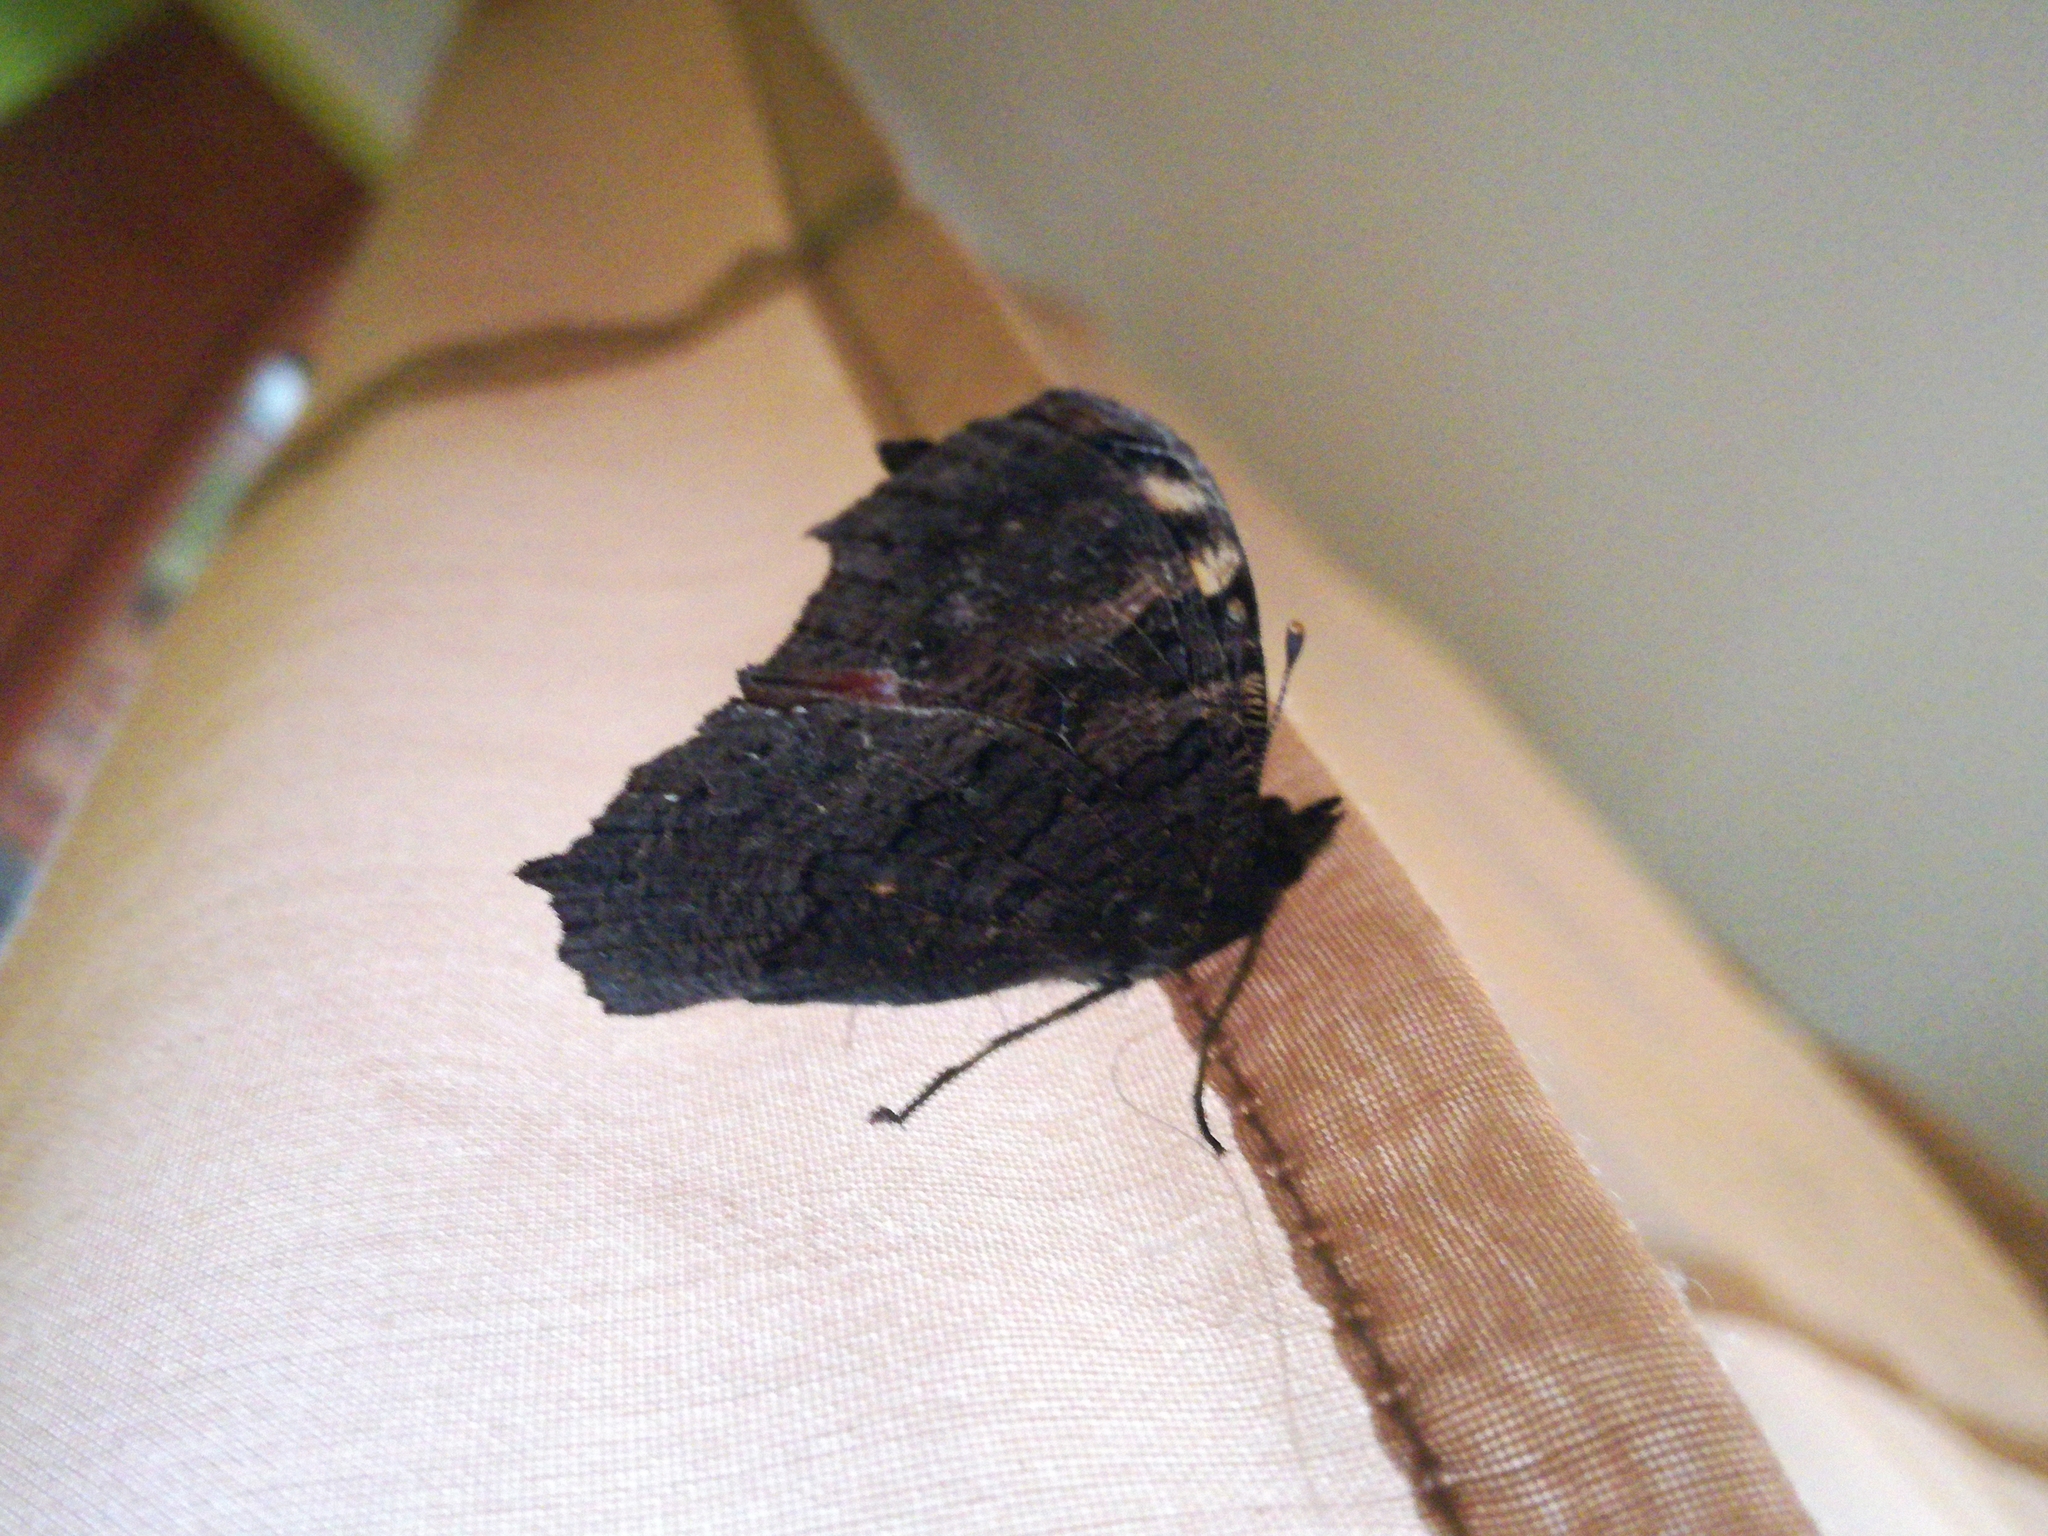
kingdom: Animalia
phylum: Arthropoda
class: Insecta
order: Lepidoptera
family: Nymphalidae
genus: Aglais
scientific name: Aglais io
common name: Peacock
